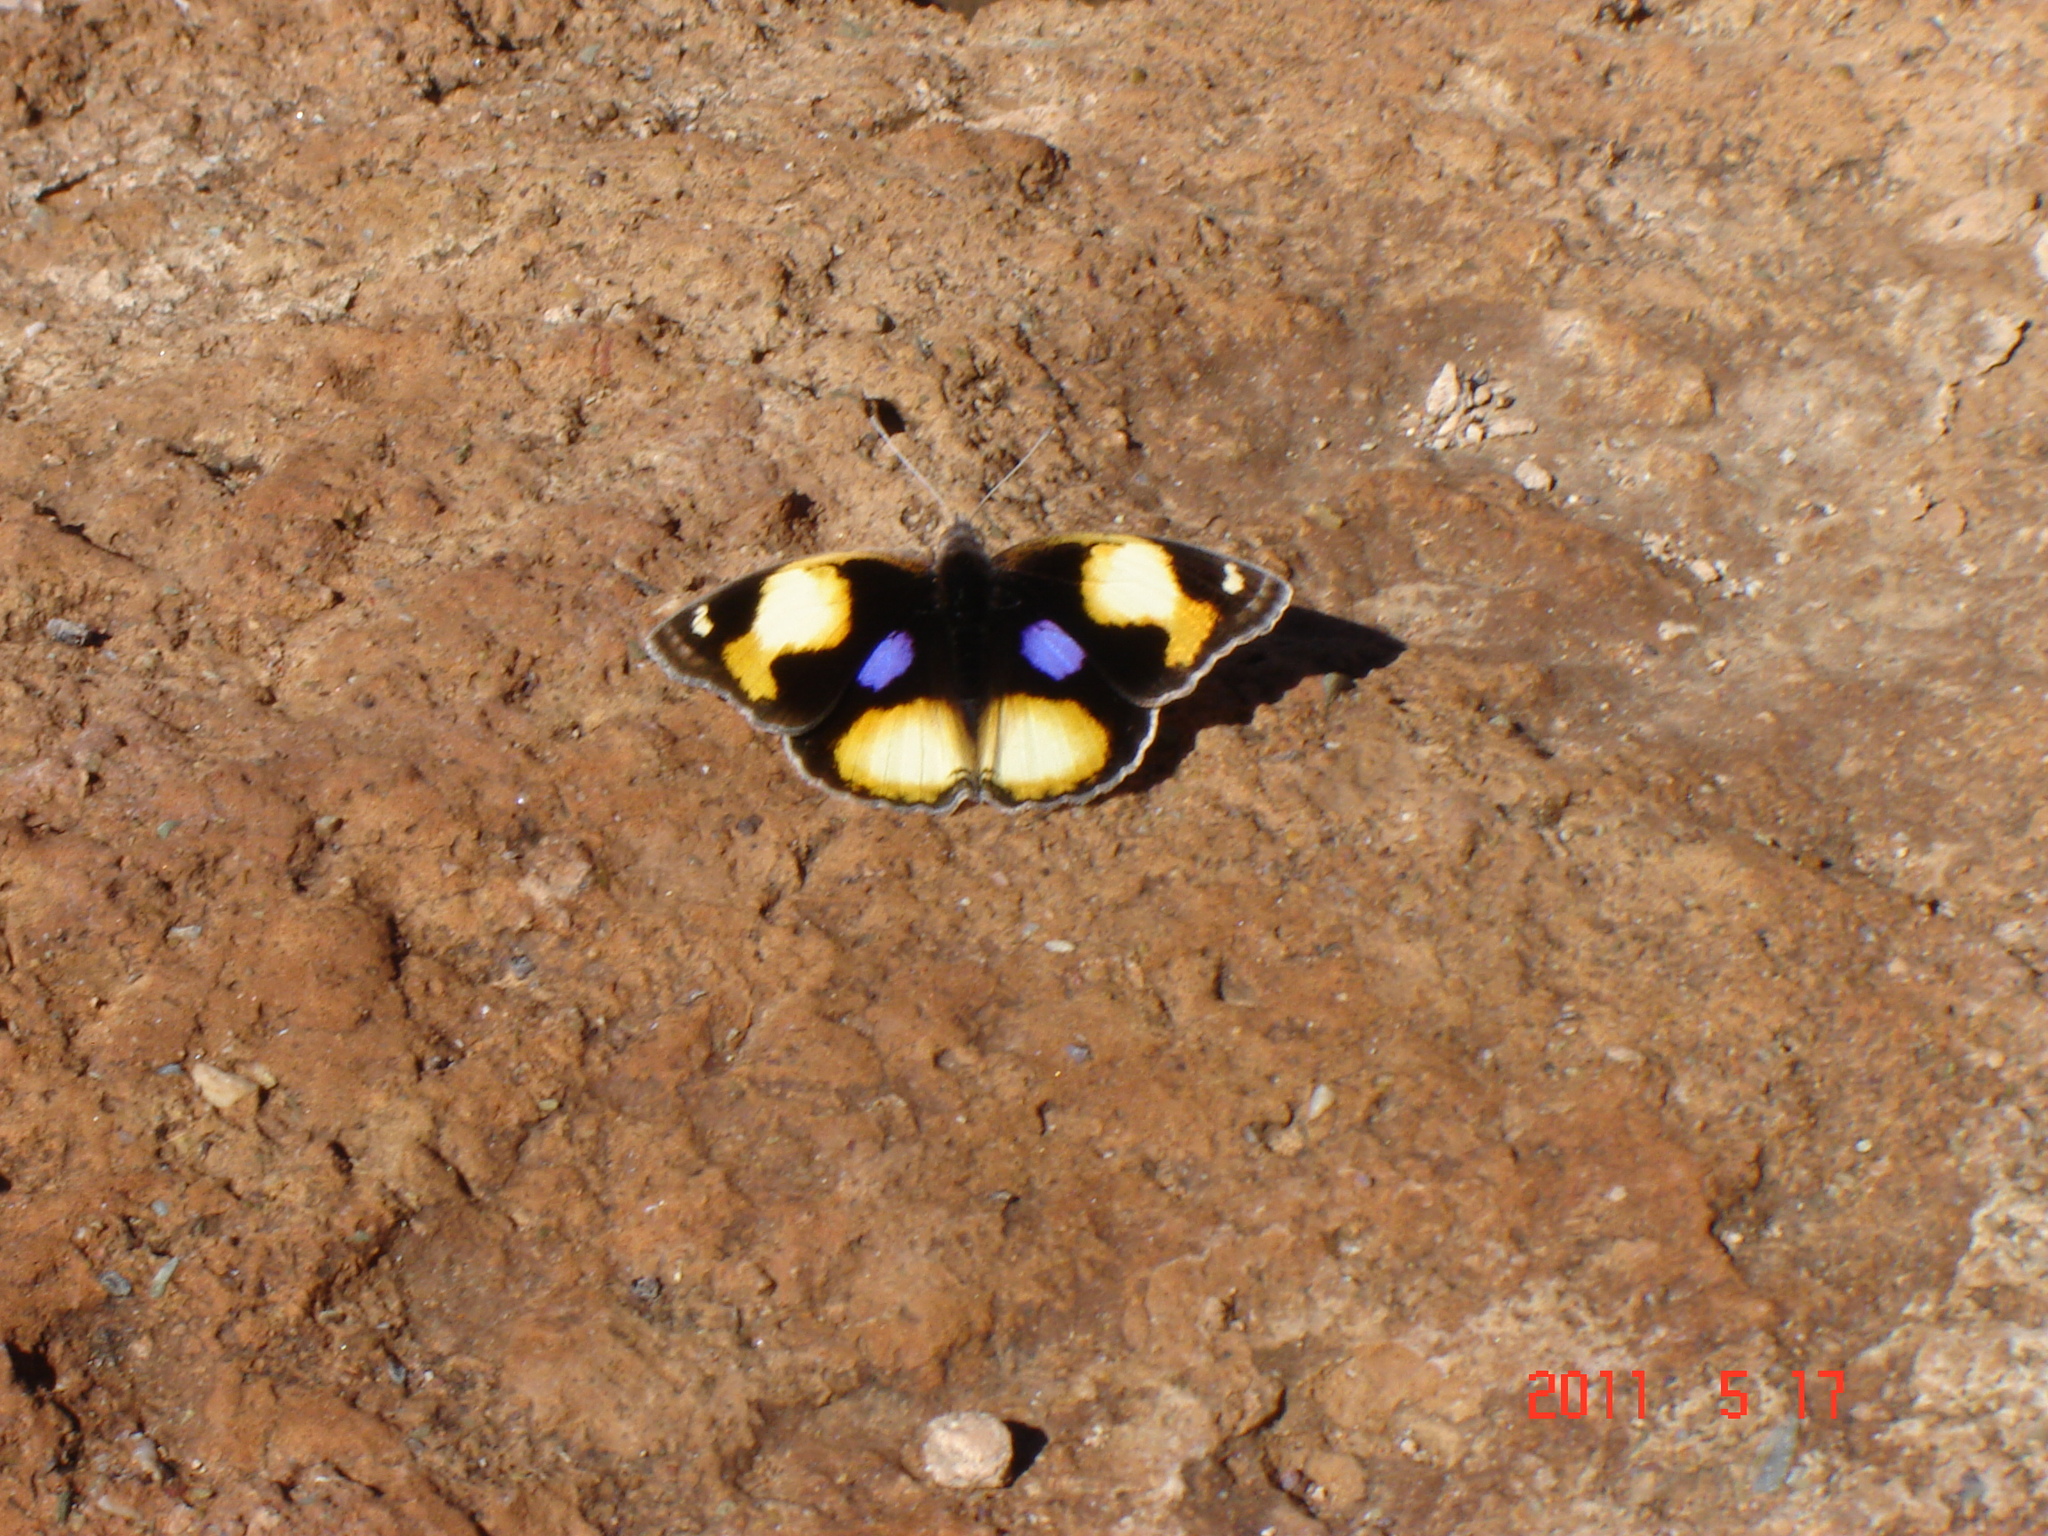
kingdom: Animalia
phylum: Arthropoda
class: Insecta
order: Lepidoptera
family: Nymphalidae
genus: Junonia
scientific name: Junonia hierta
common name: Yellow pansy
